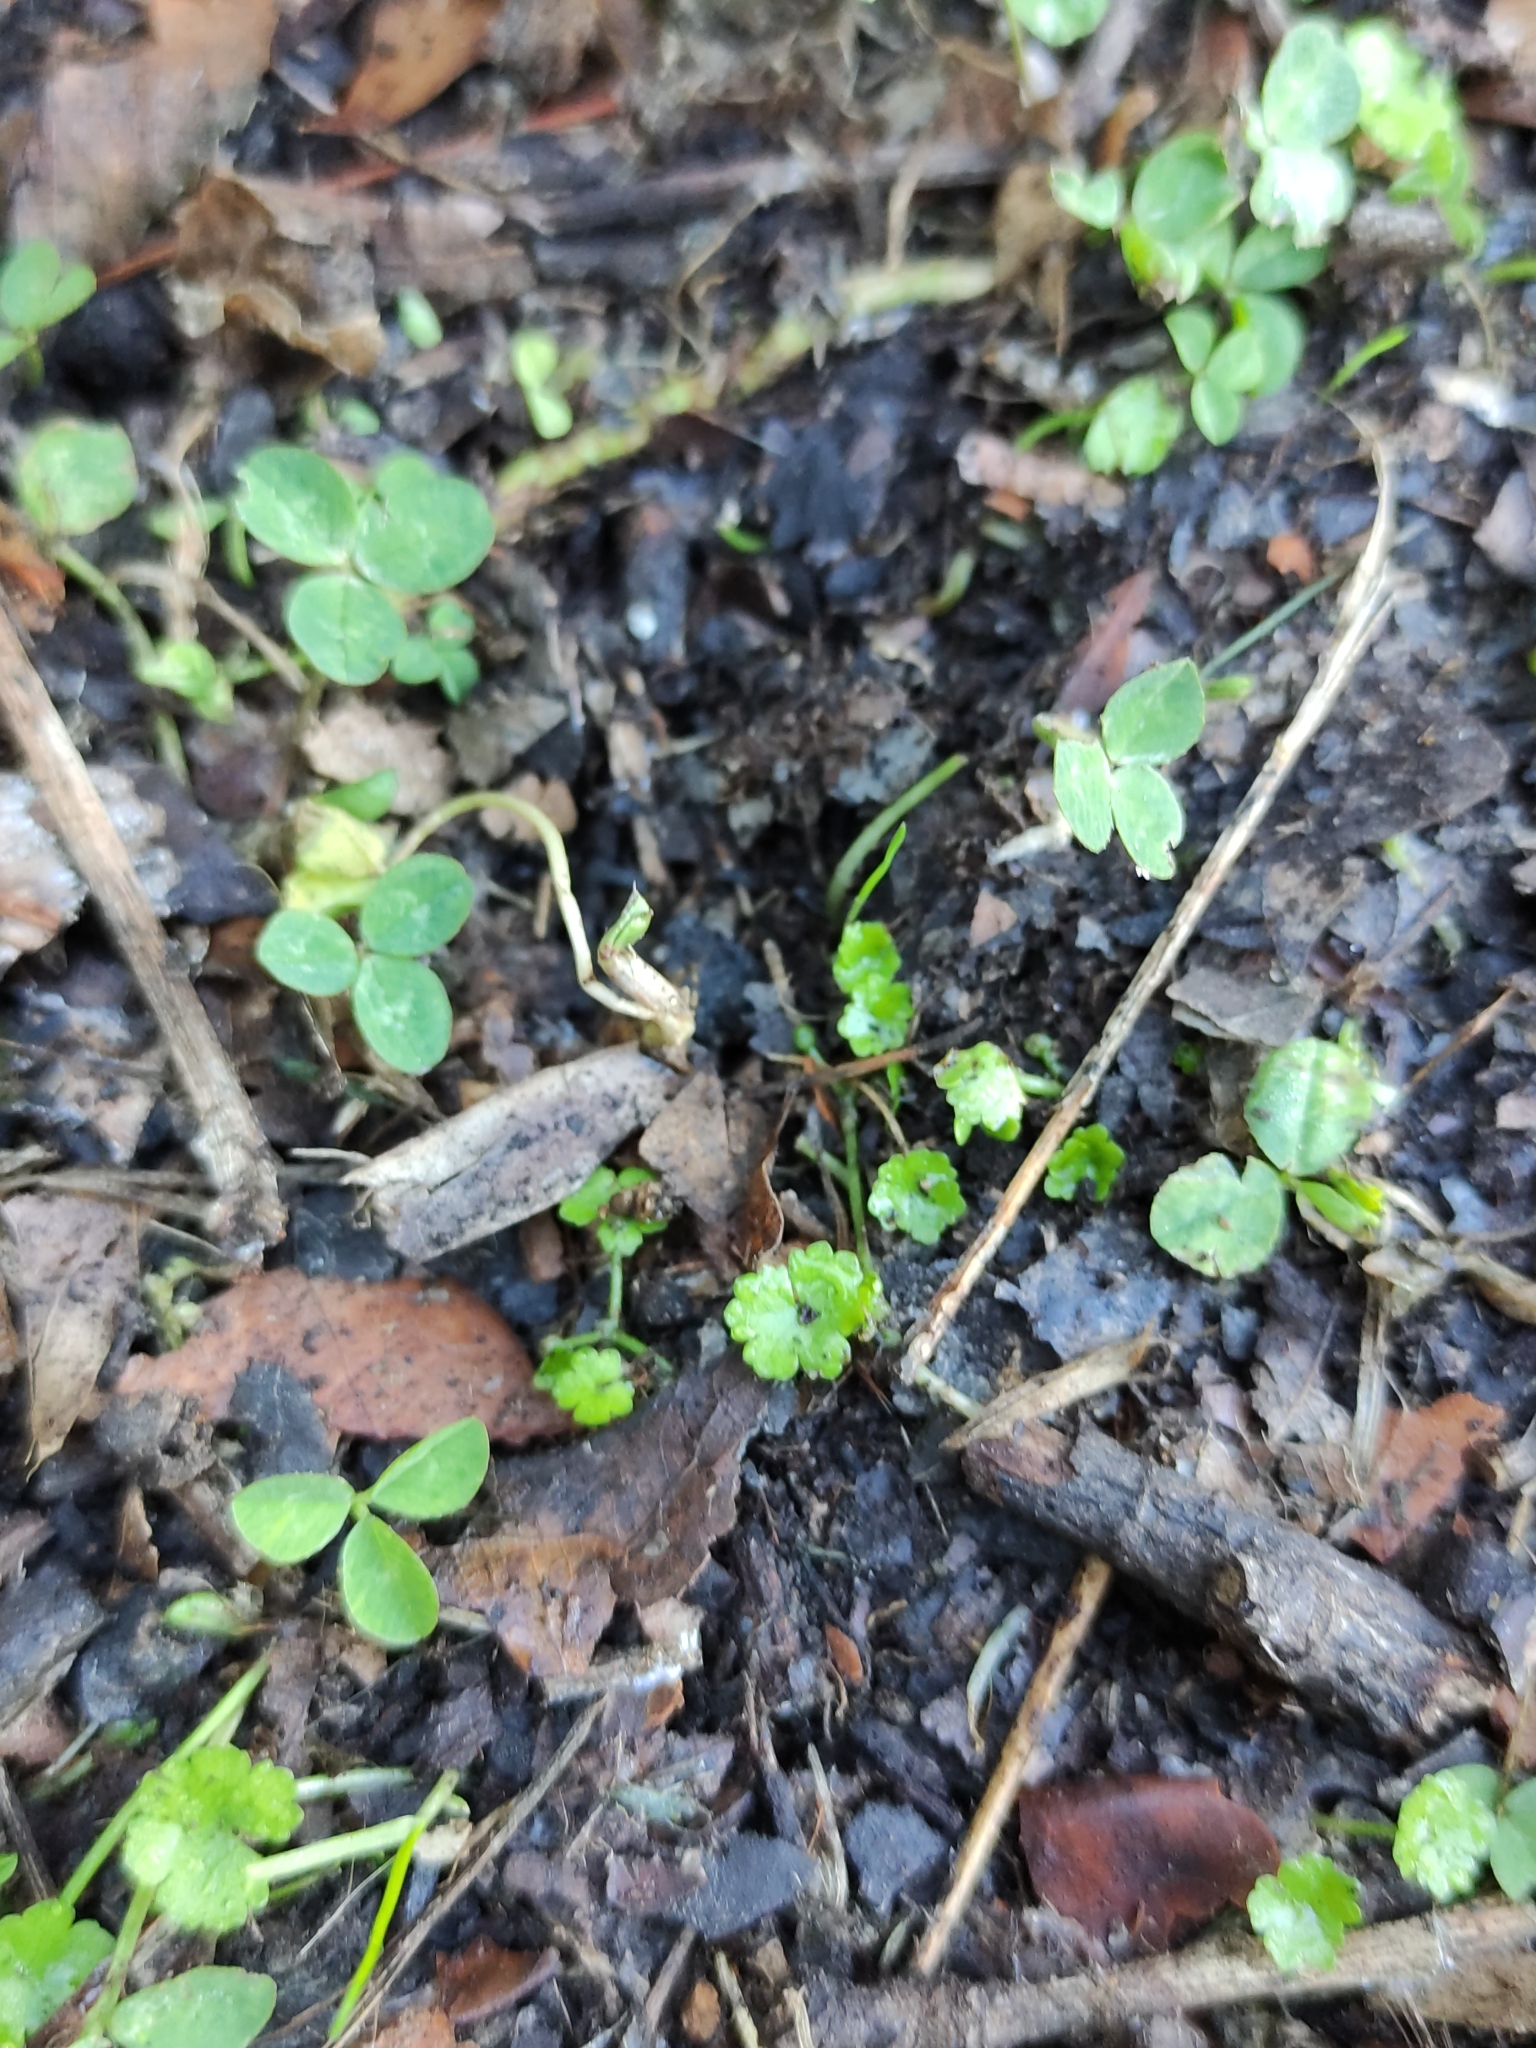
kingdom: Plantae
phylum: Tracheophyta
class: Magnoliopsida
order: Apiales
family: Araliaceae
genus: Hydrocotyle
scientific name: Hydrocotyle heteromeria
